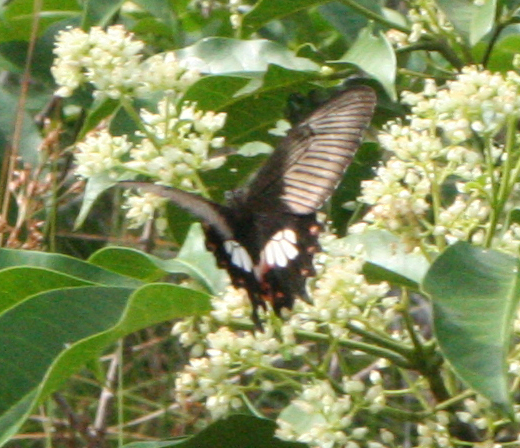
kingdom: Animalia
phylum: Arthropoda
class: Insecta
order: Lepidoptera
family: Papilionidae
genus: Papilio
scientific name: Papilio polytes
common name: Common mormon
